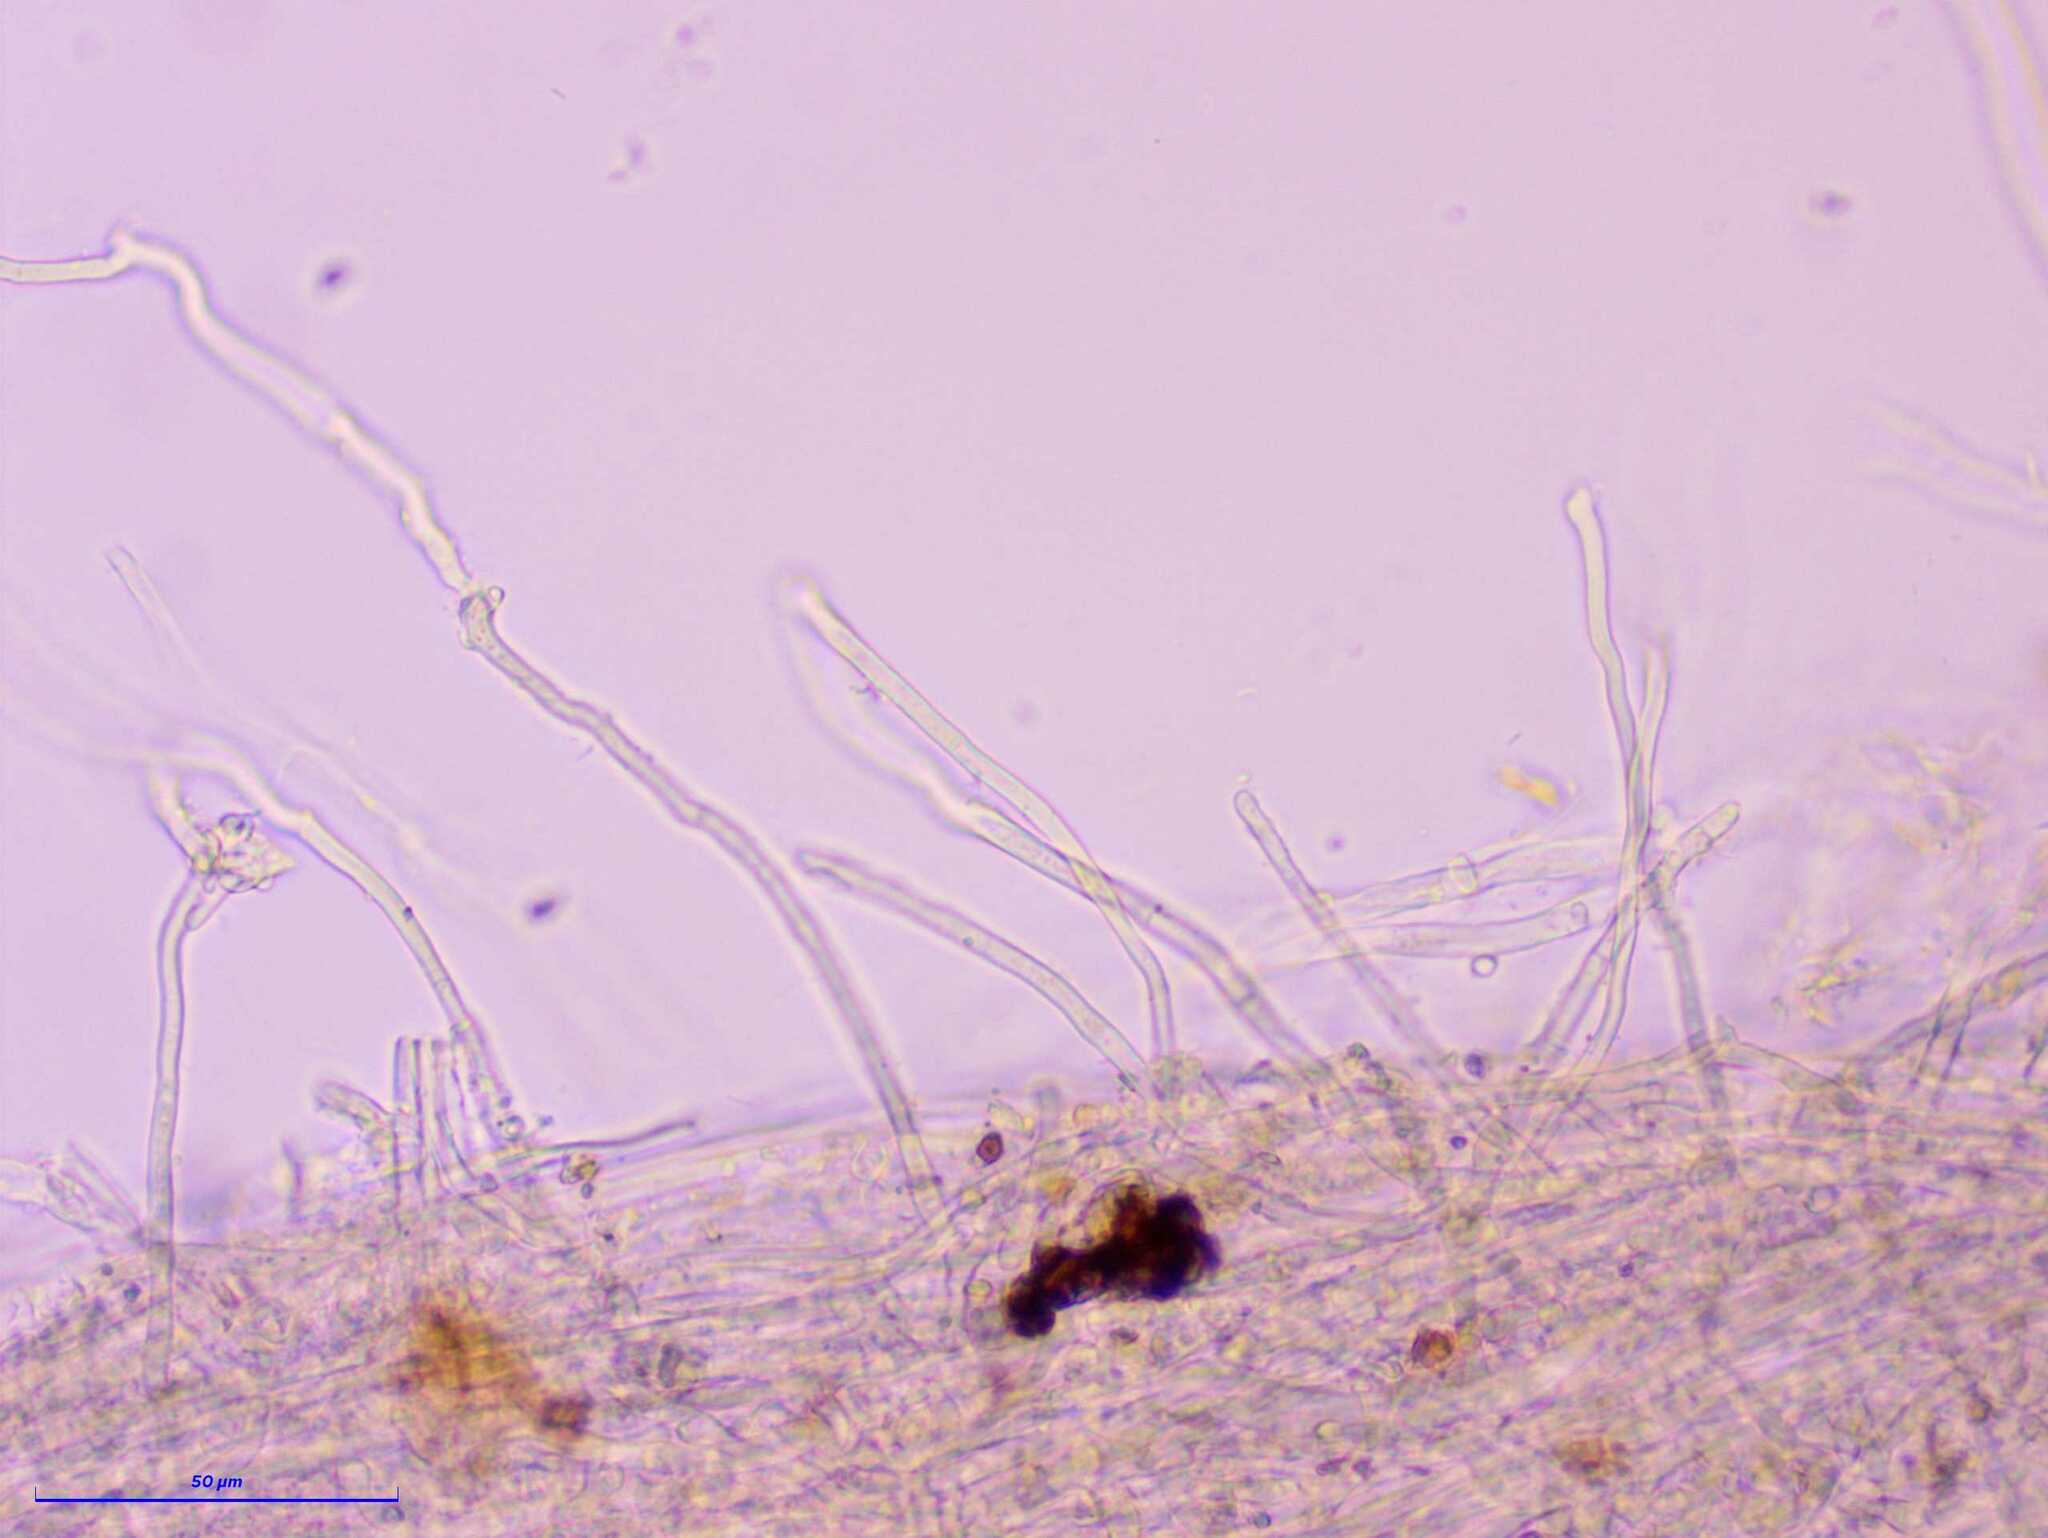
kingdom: Fungi
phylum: Ascomycota
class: Pezizomycetes
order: Pezizales
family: Sarcoscyphaceae
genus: Sarcoscypha
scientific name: Sarcoscypha coccinea
